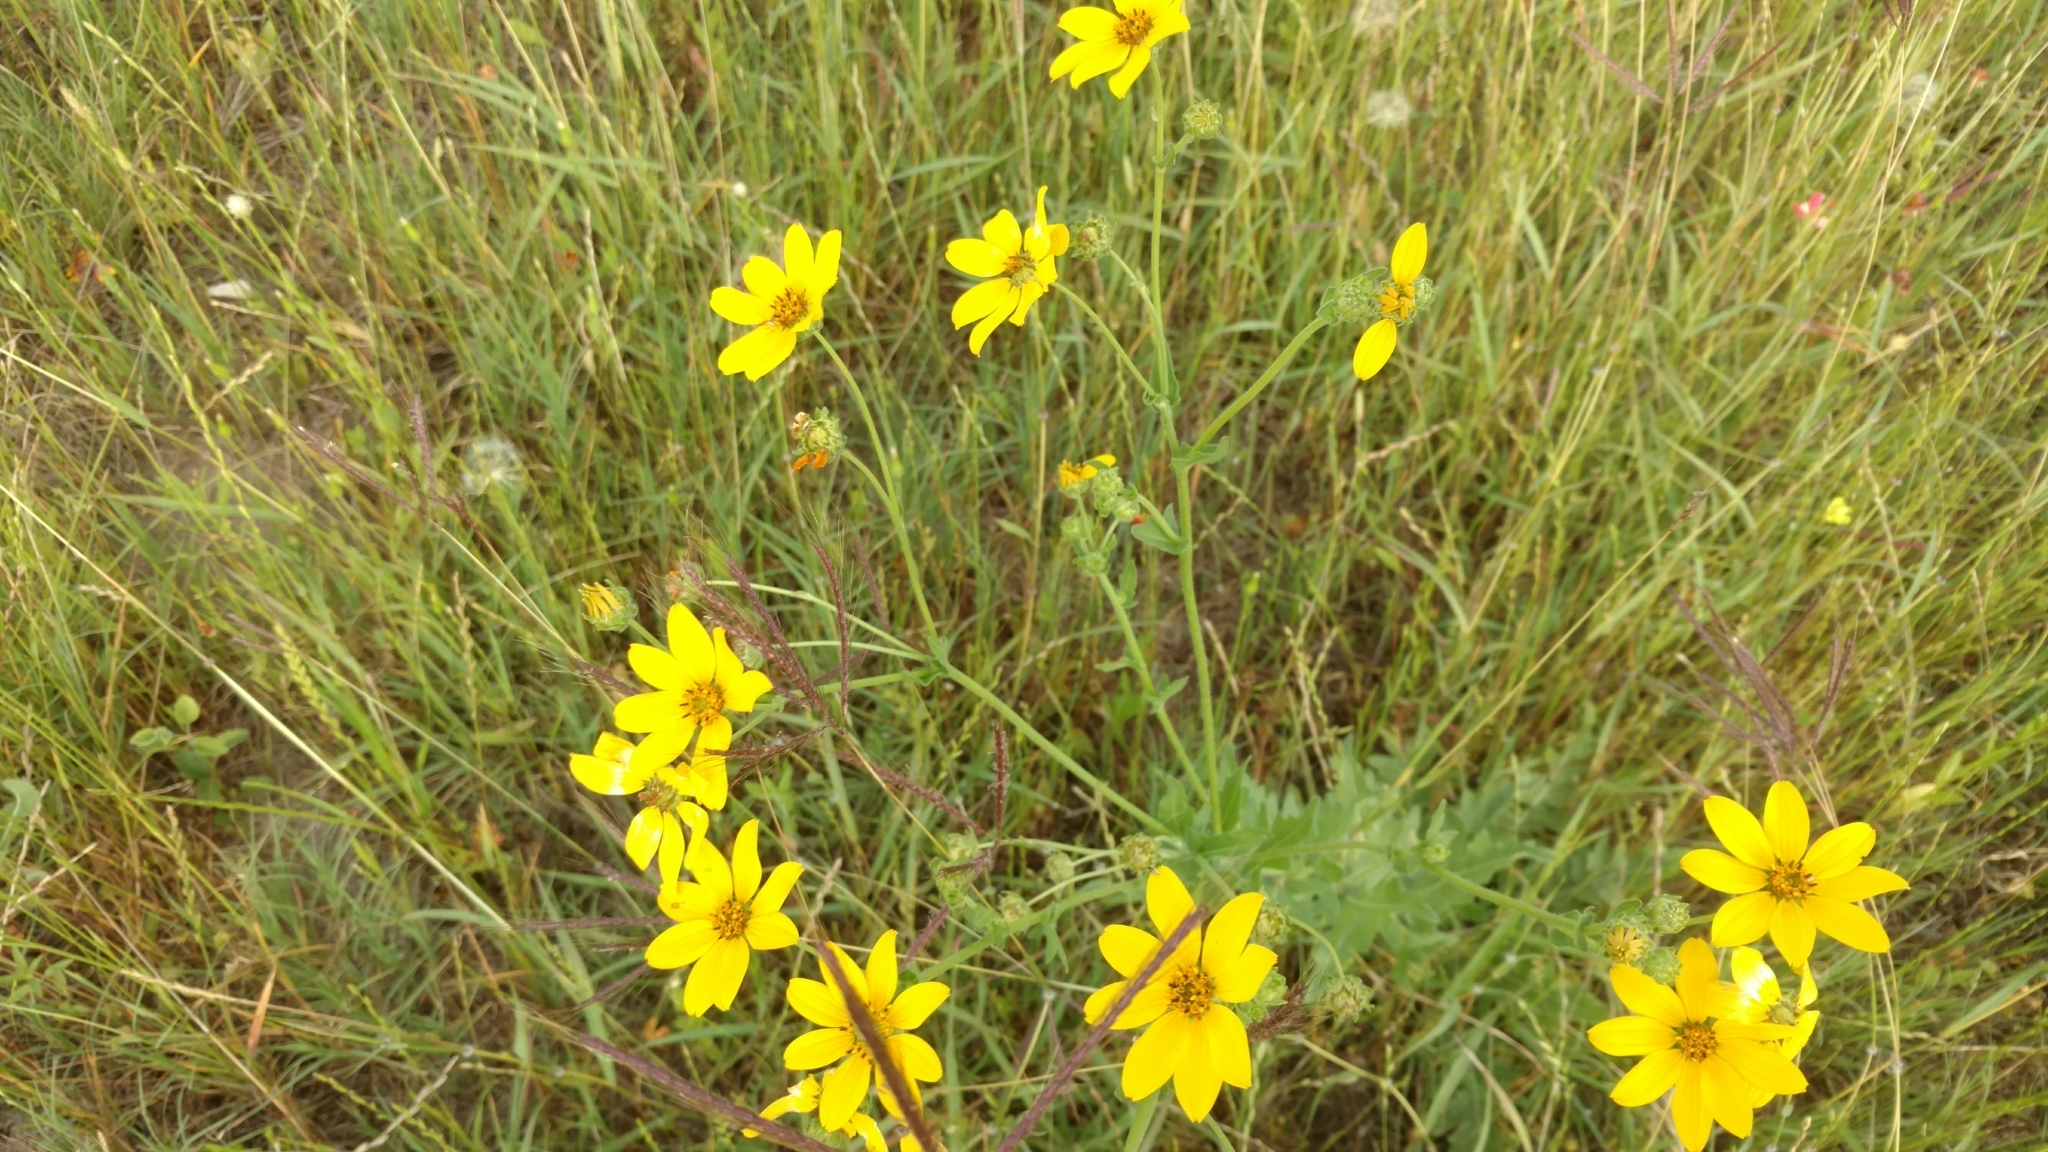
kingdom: Plantae
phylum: Tracheophyta
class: Magnoliopsida
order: Asterales
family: Asteraceae
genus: Engelmannia
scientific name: Engelmannia peristenia
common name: Engelmann's daisy
